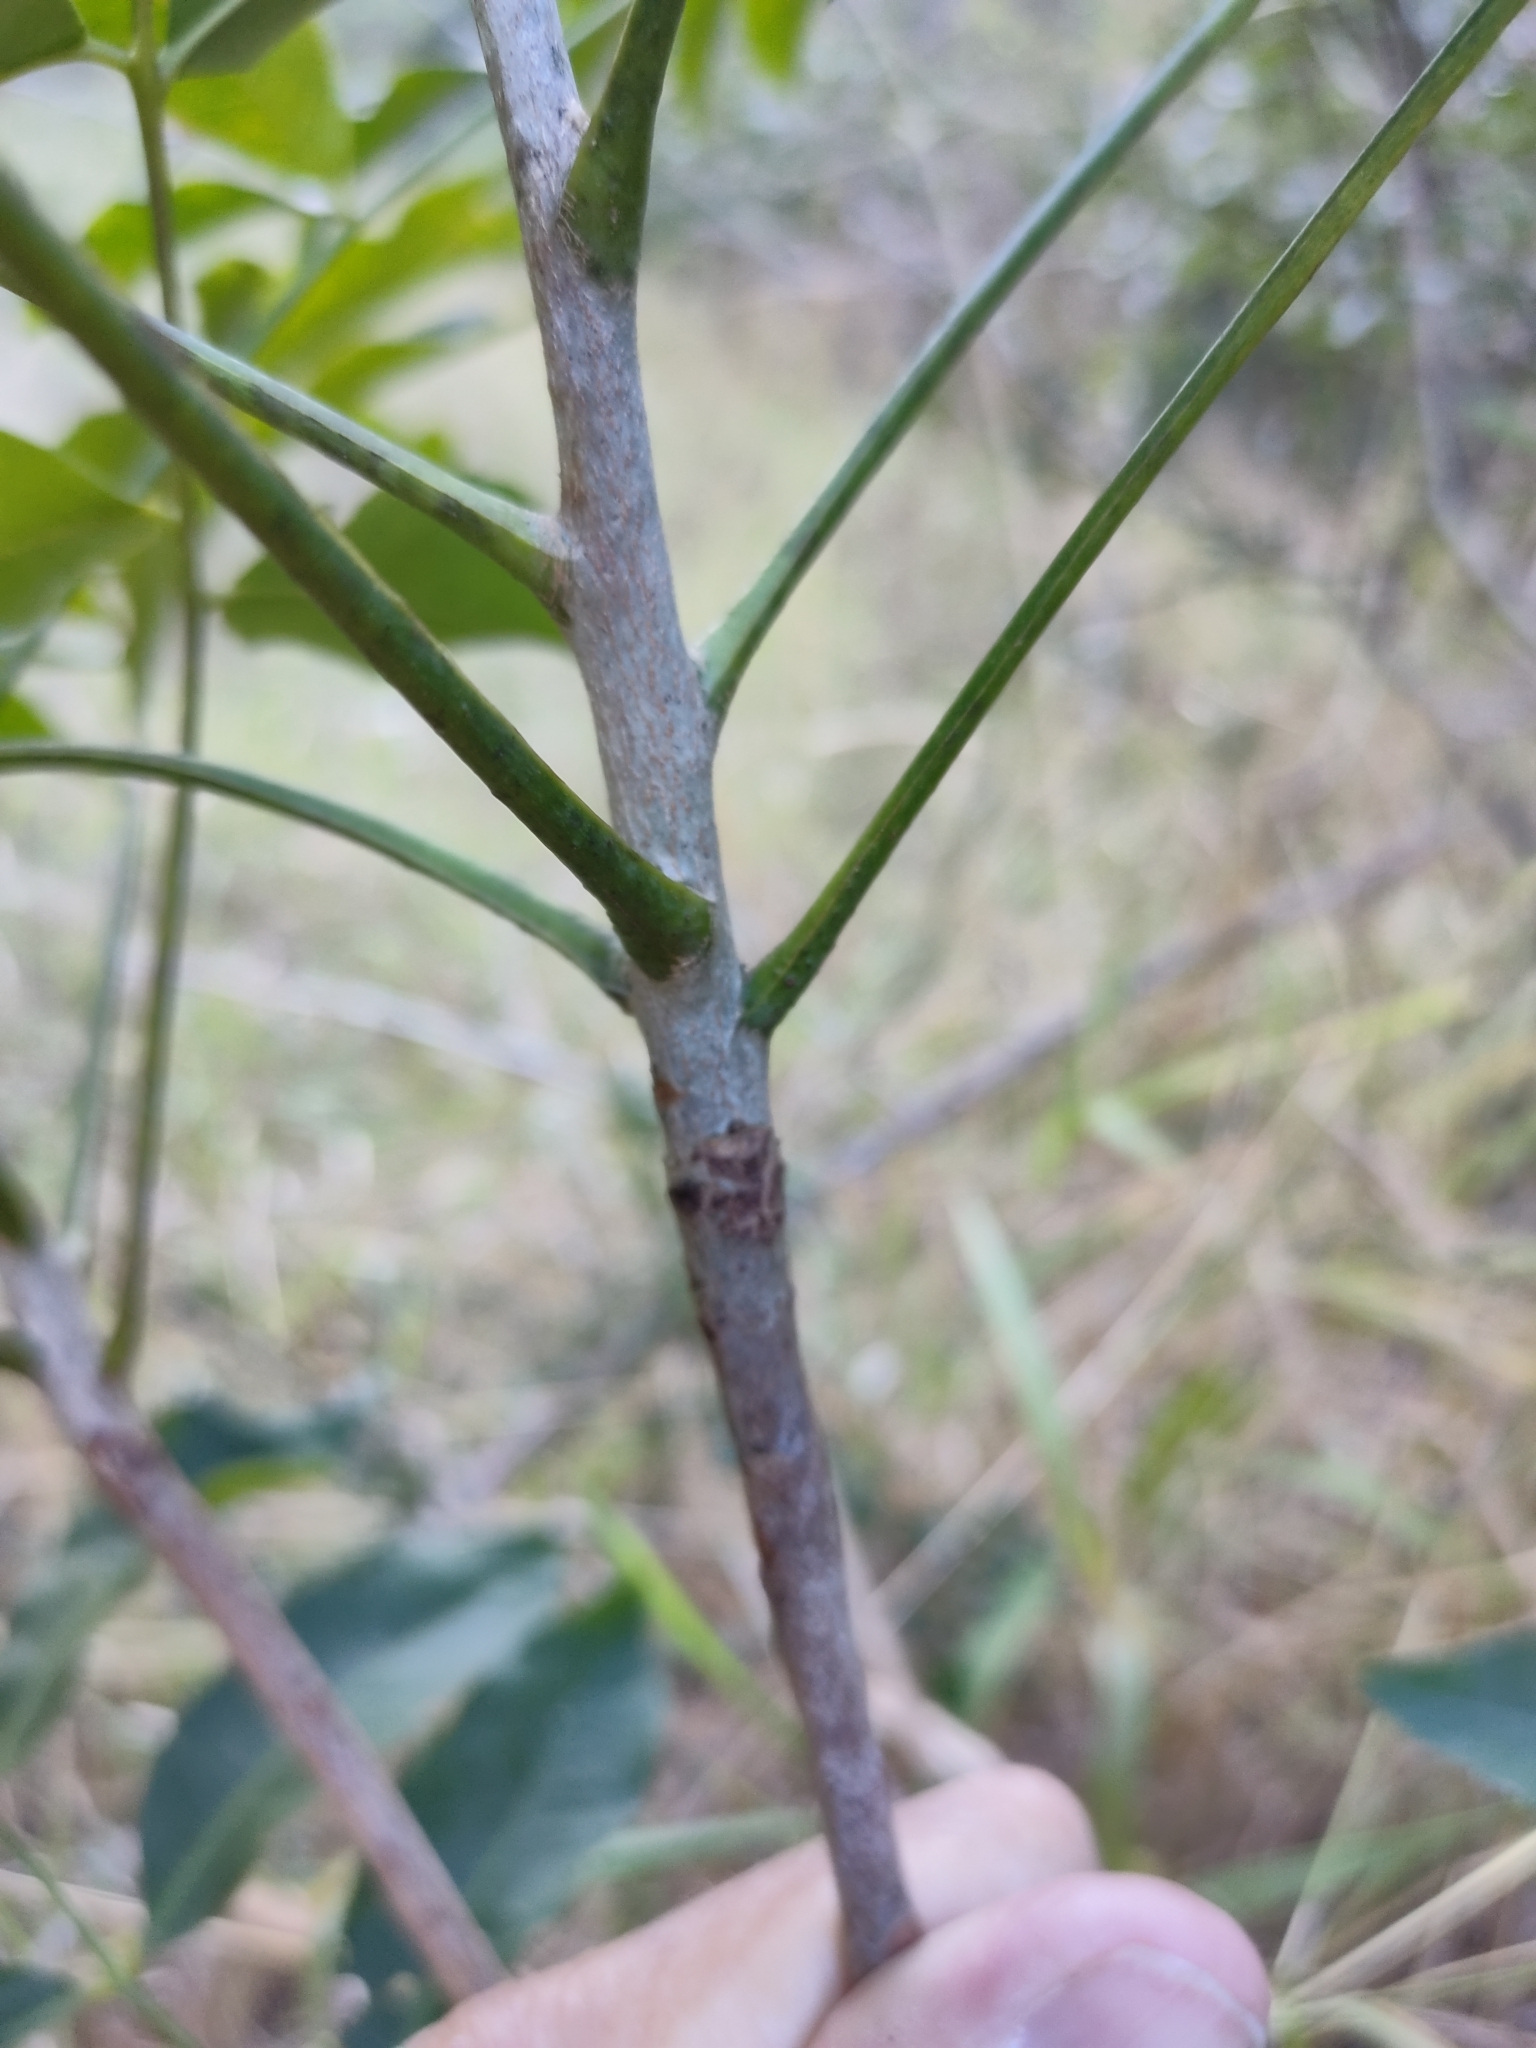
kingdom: Plantae
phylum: Tracheophyta
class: Magnoliopsida
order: Sapindales
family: Rutaceae
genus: Flindersia
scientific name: Flindersia australis
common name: Australian-teak
